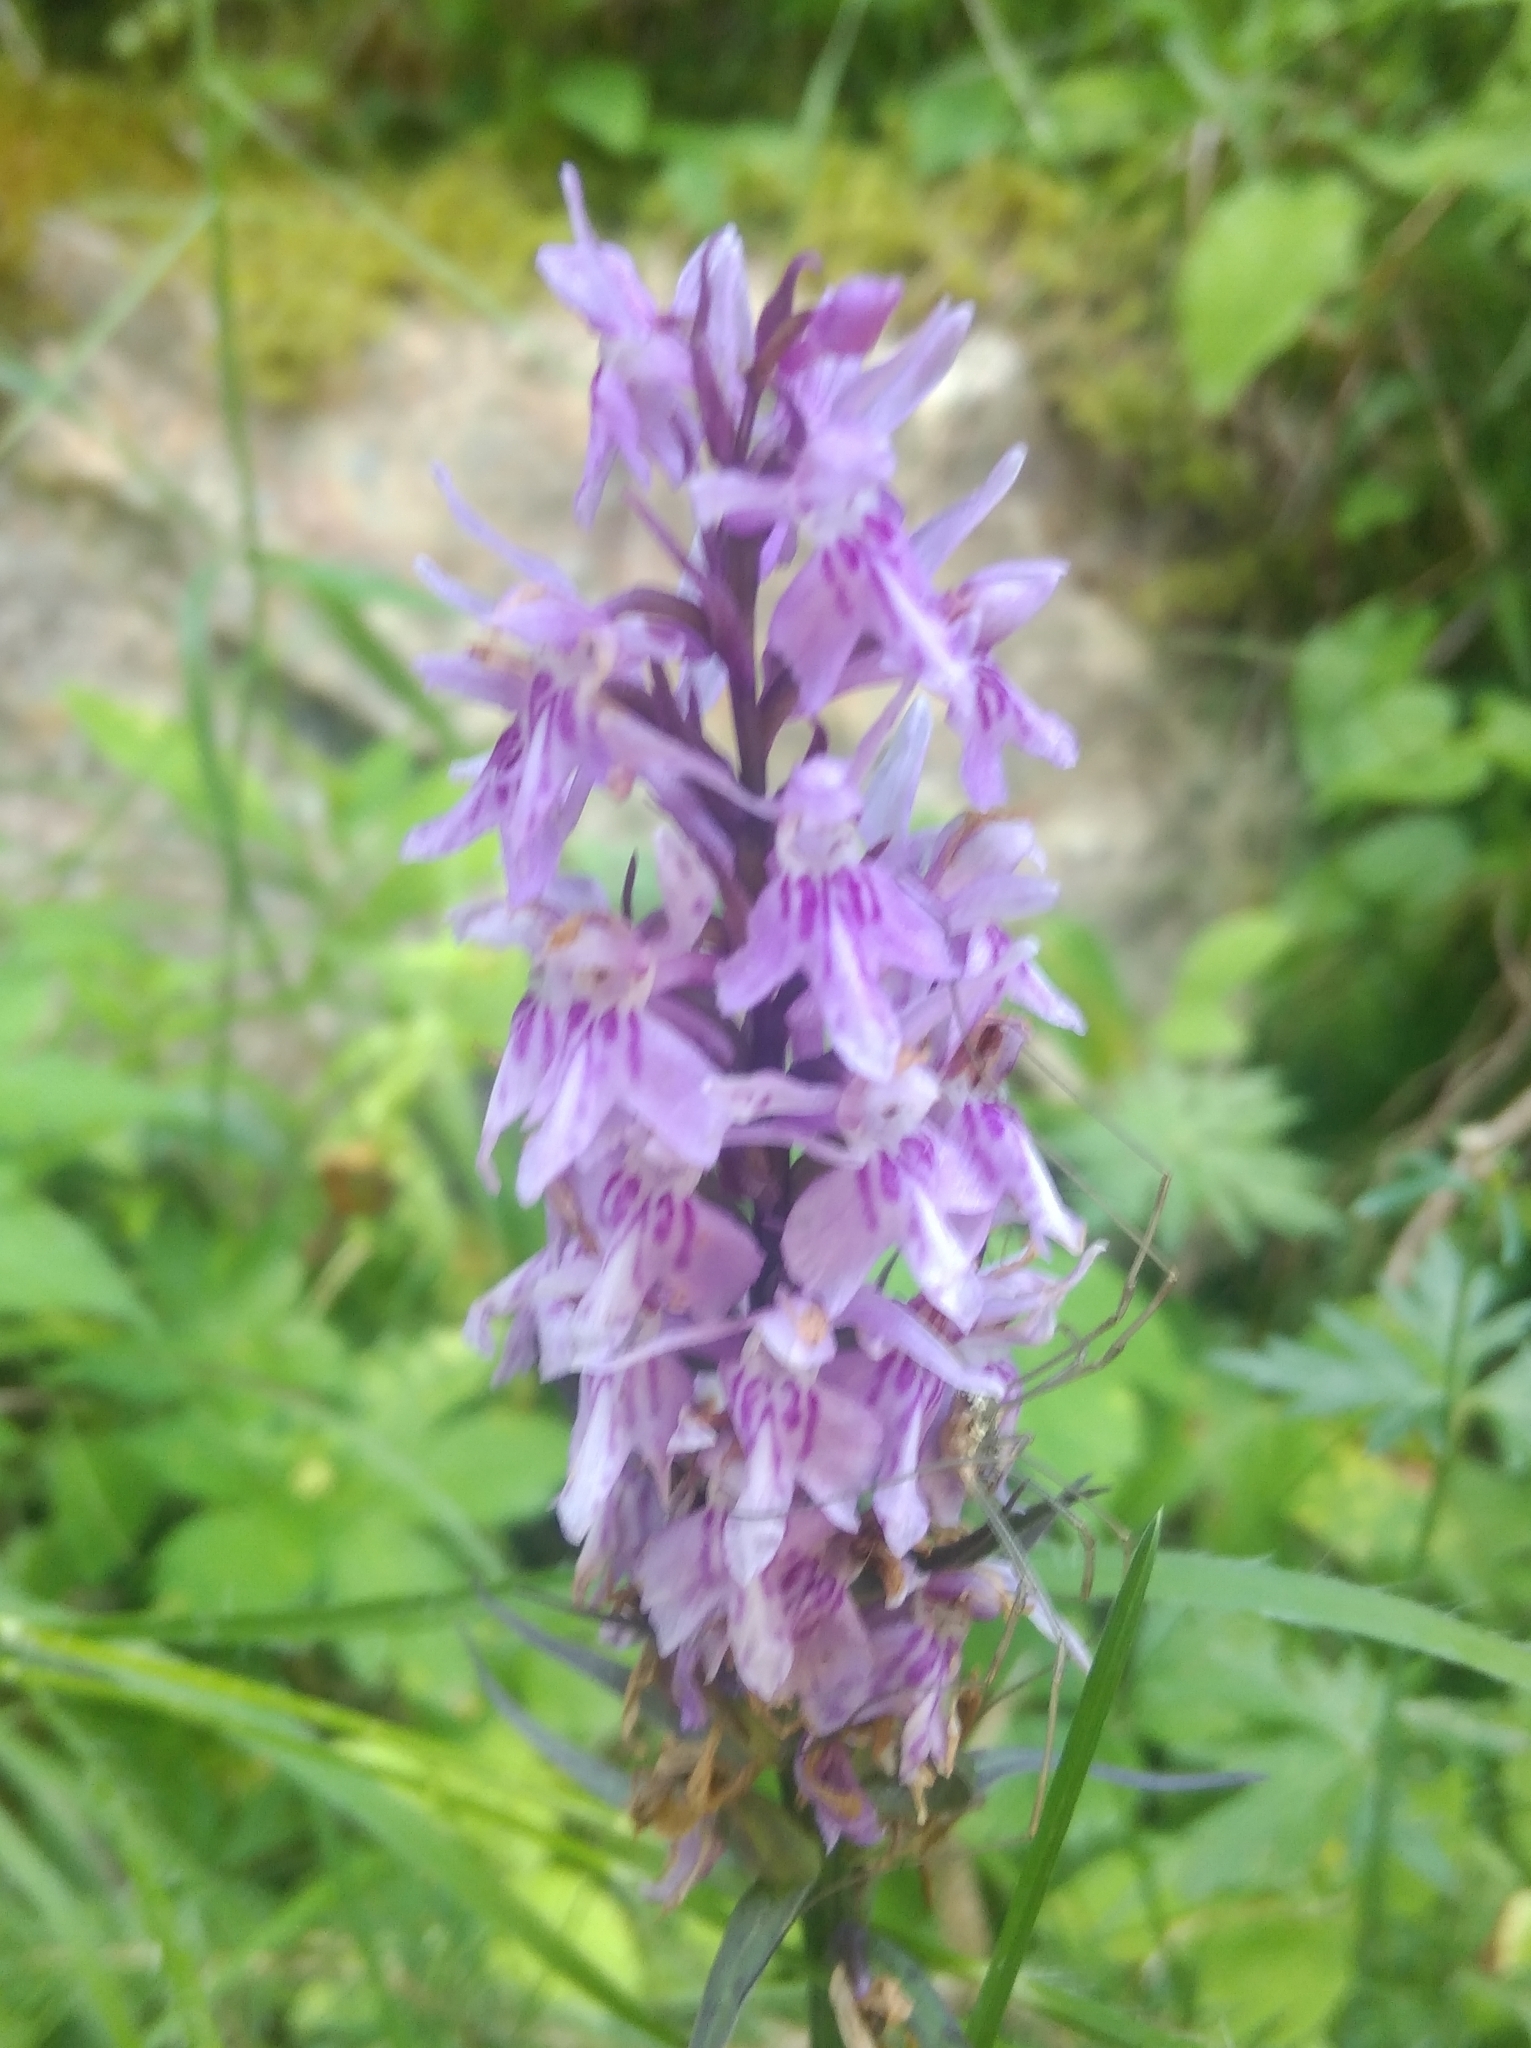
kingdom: Plantae
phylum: Tracheophyta
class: Liliopsida
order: Asparagales
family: Orchidaceae
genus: Dactylorhiza
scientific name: Dactylorhiza maculata
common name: Heath spotted-orchid
